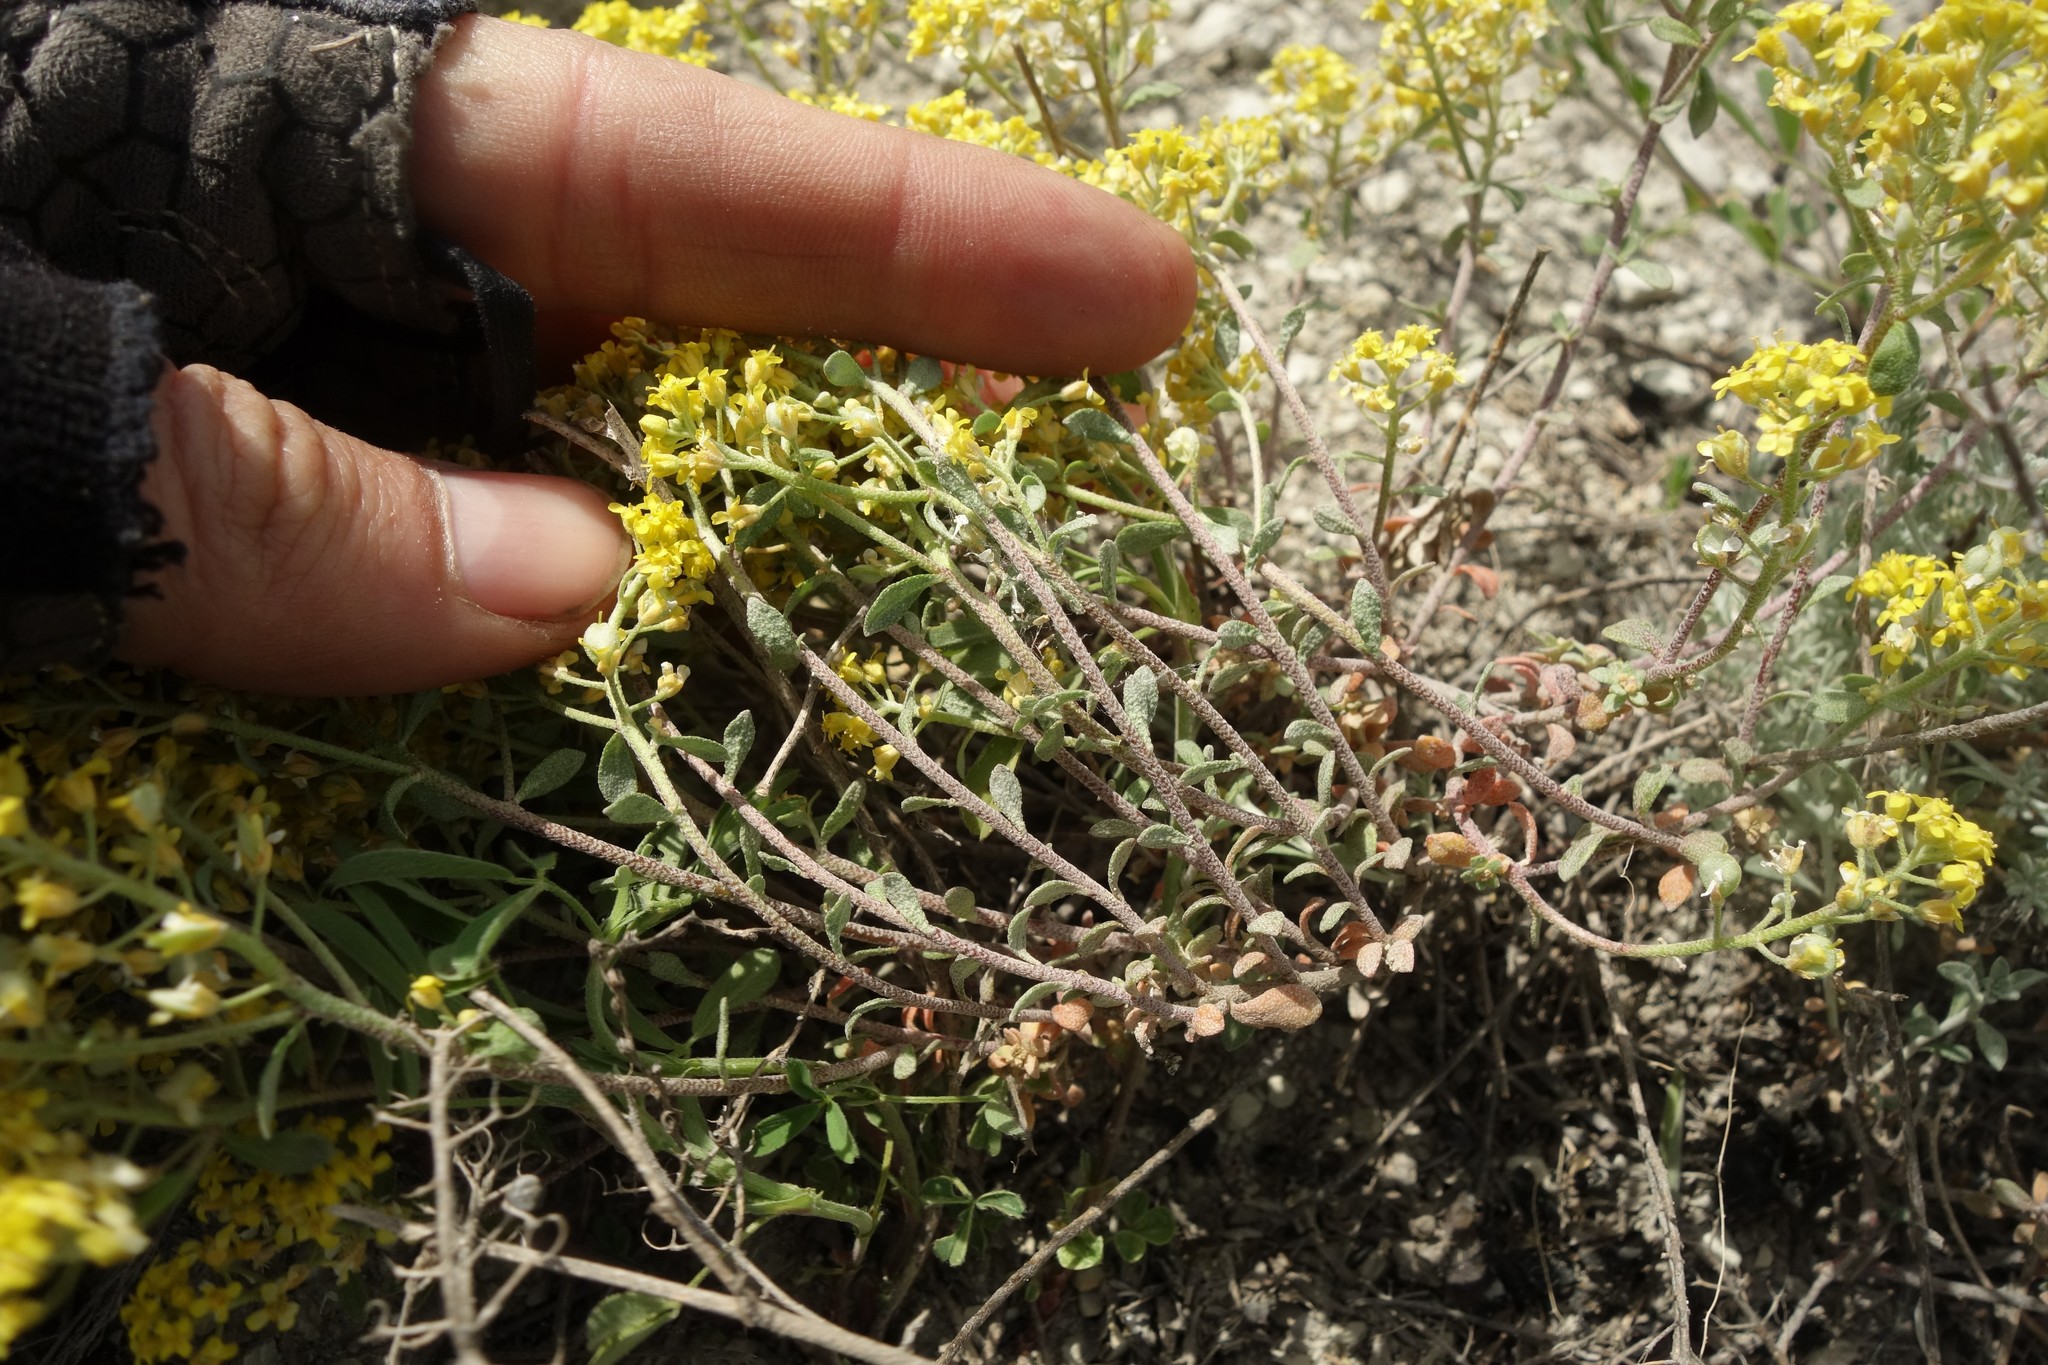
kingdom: Plantae
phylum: Tracheophyta
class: Magnoliopsida
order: Brassicales
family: Brassicaceae
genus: Odontarrhena
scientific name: Odontarrhena tortuosa
